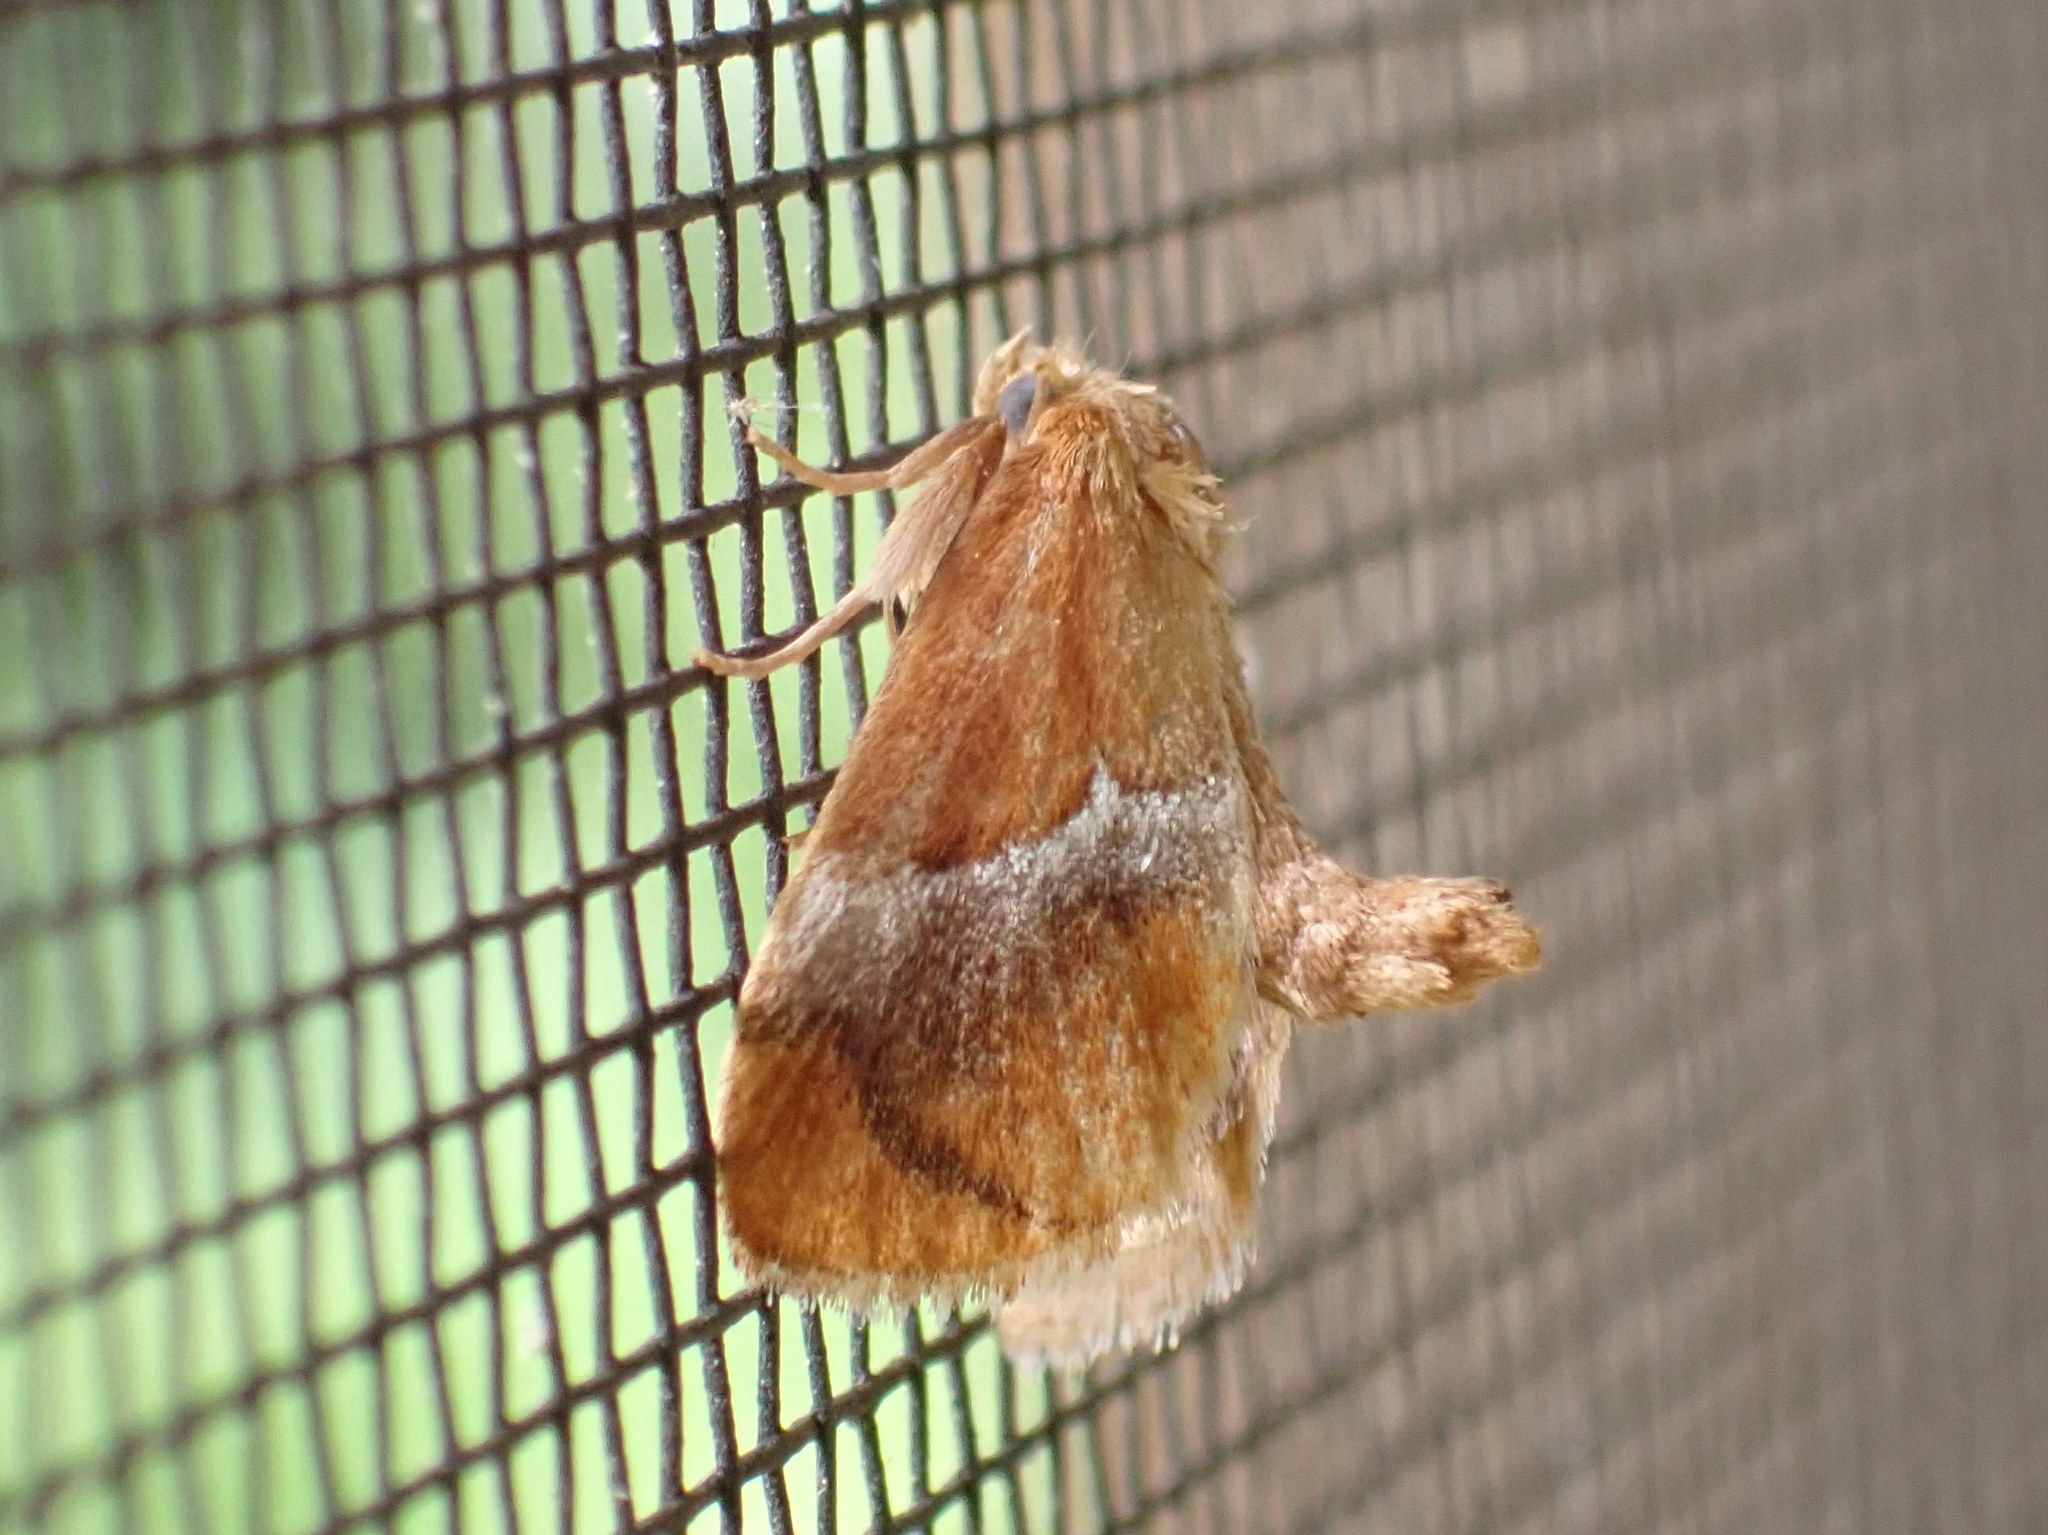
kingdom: Animalia
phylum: Arthropoda
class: Insecta
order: Lepidoptera
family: Limacodidae
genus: Lithacodes
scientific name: Lithacodes fasciola
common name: Yellow-shouldered slug moth
